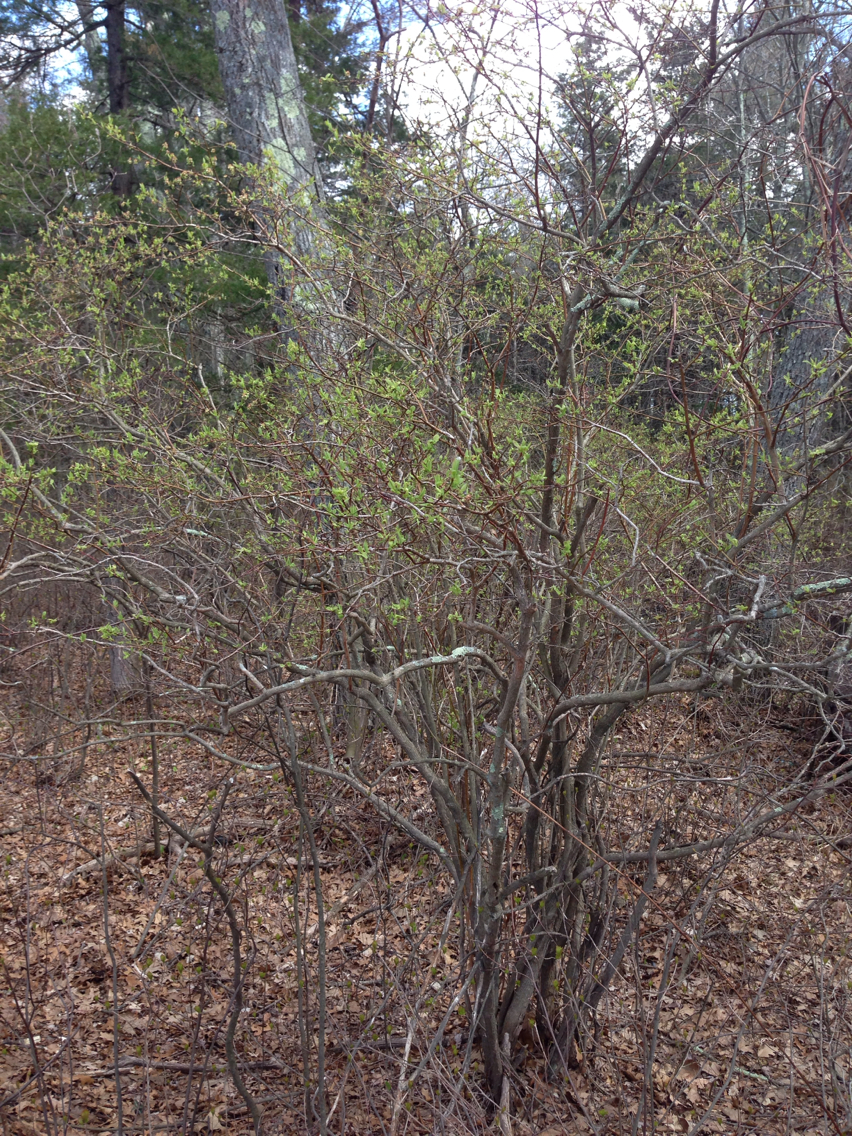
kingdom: Plantae
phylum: Tracheophyta
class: Magnoliopsida
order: Ericales
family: Ericaceae
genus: Vaccinium
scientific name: Vaccinium corymbosum
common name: Blueberry
